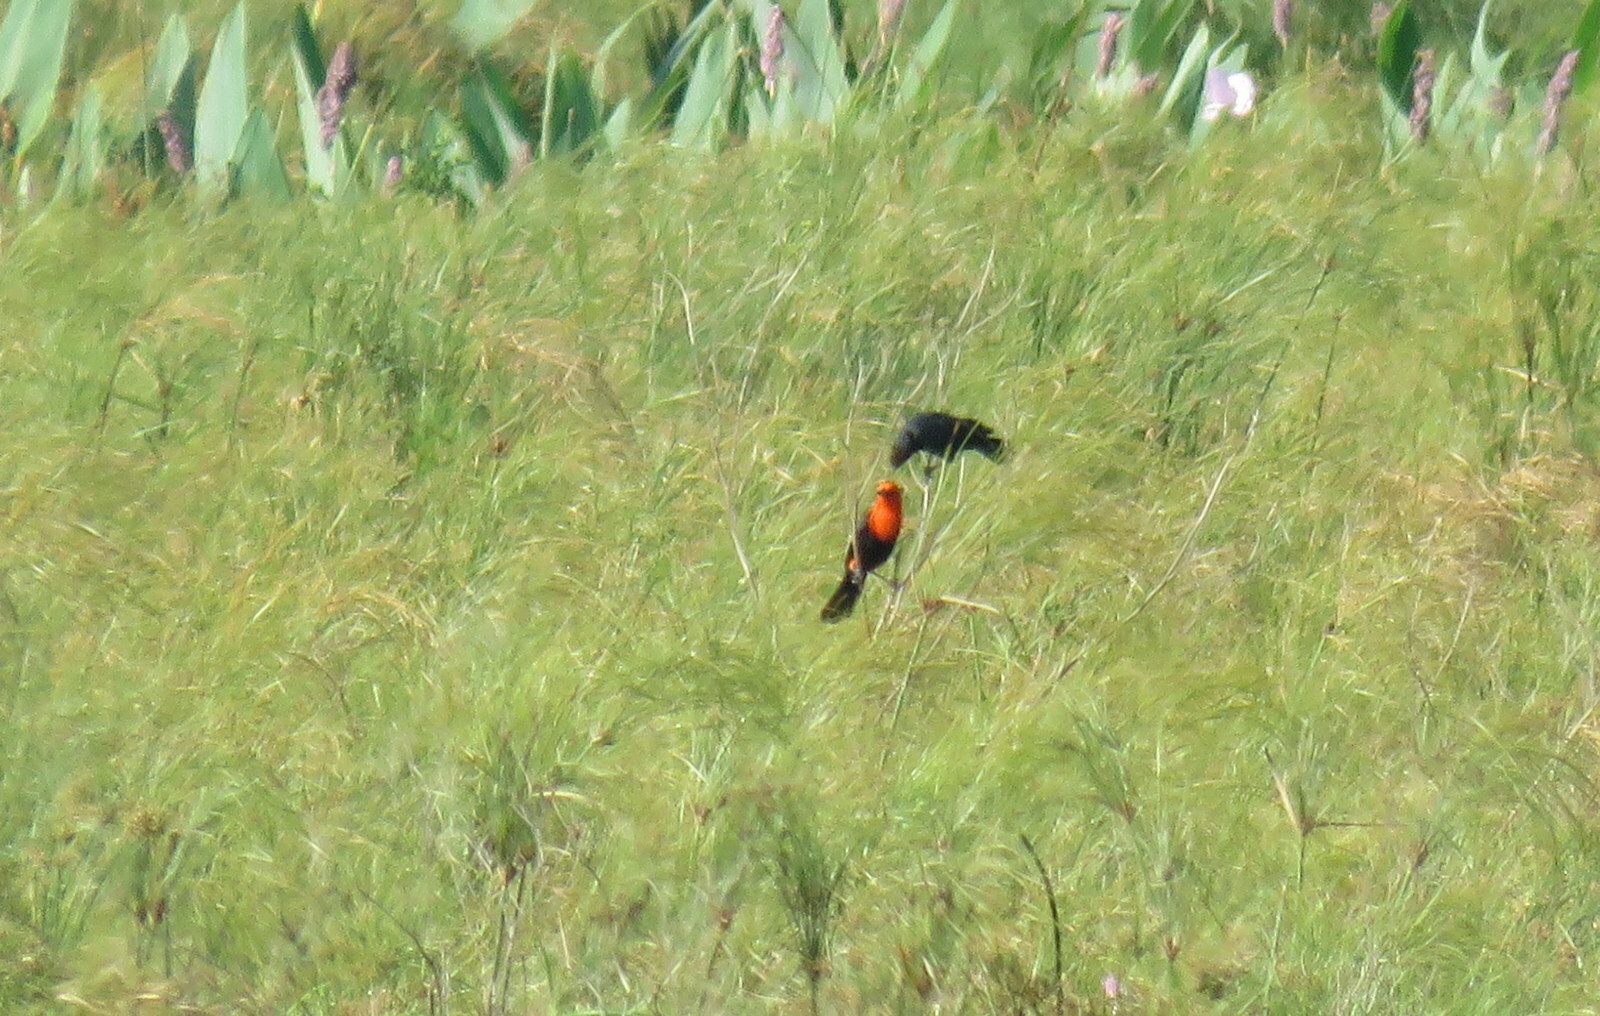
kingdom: Animalia
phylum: Chordata
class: Aves
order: Passeriformes
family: Icteridae
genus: Amblyramphus
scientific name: Amblyramphus holosericeus
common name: Scarlet-headed blackbird
